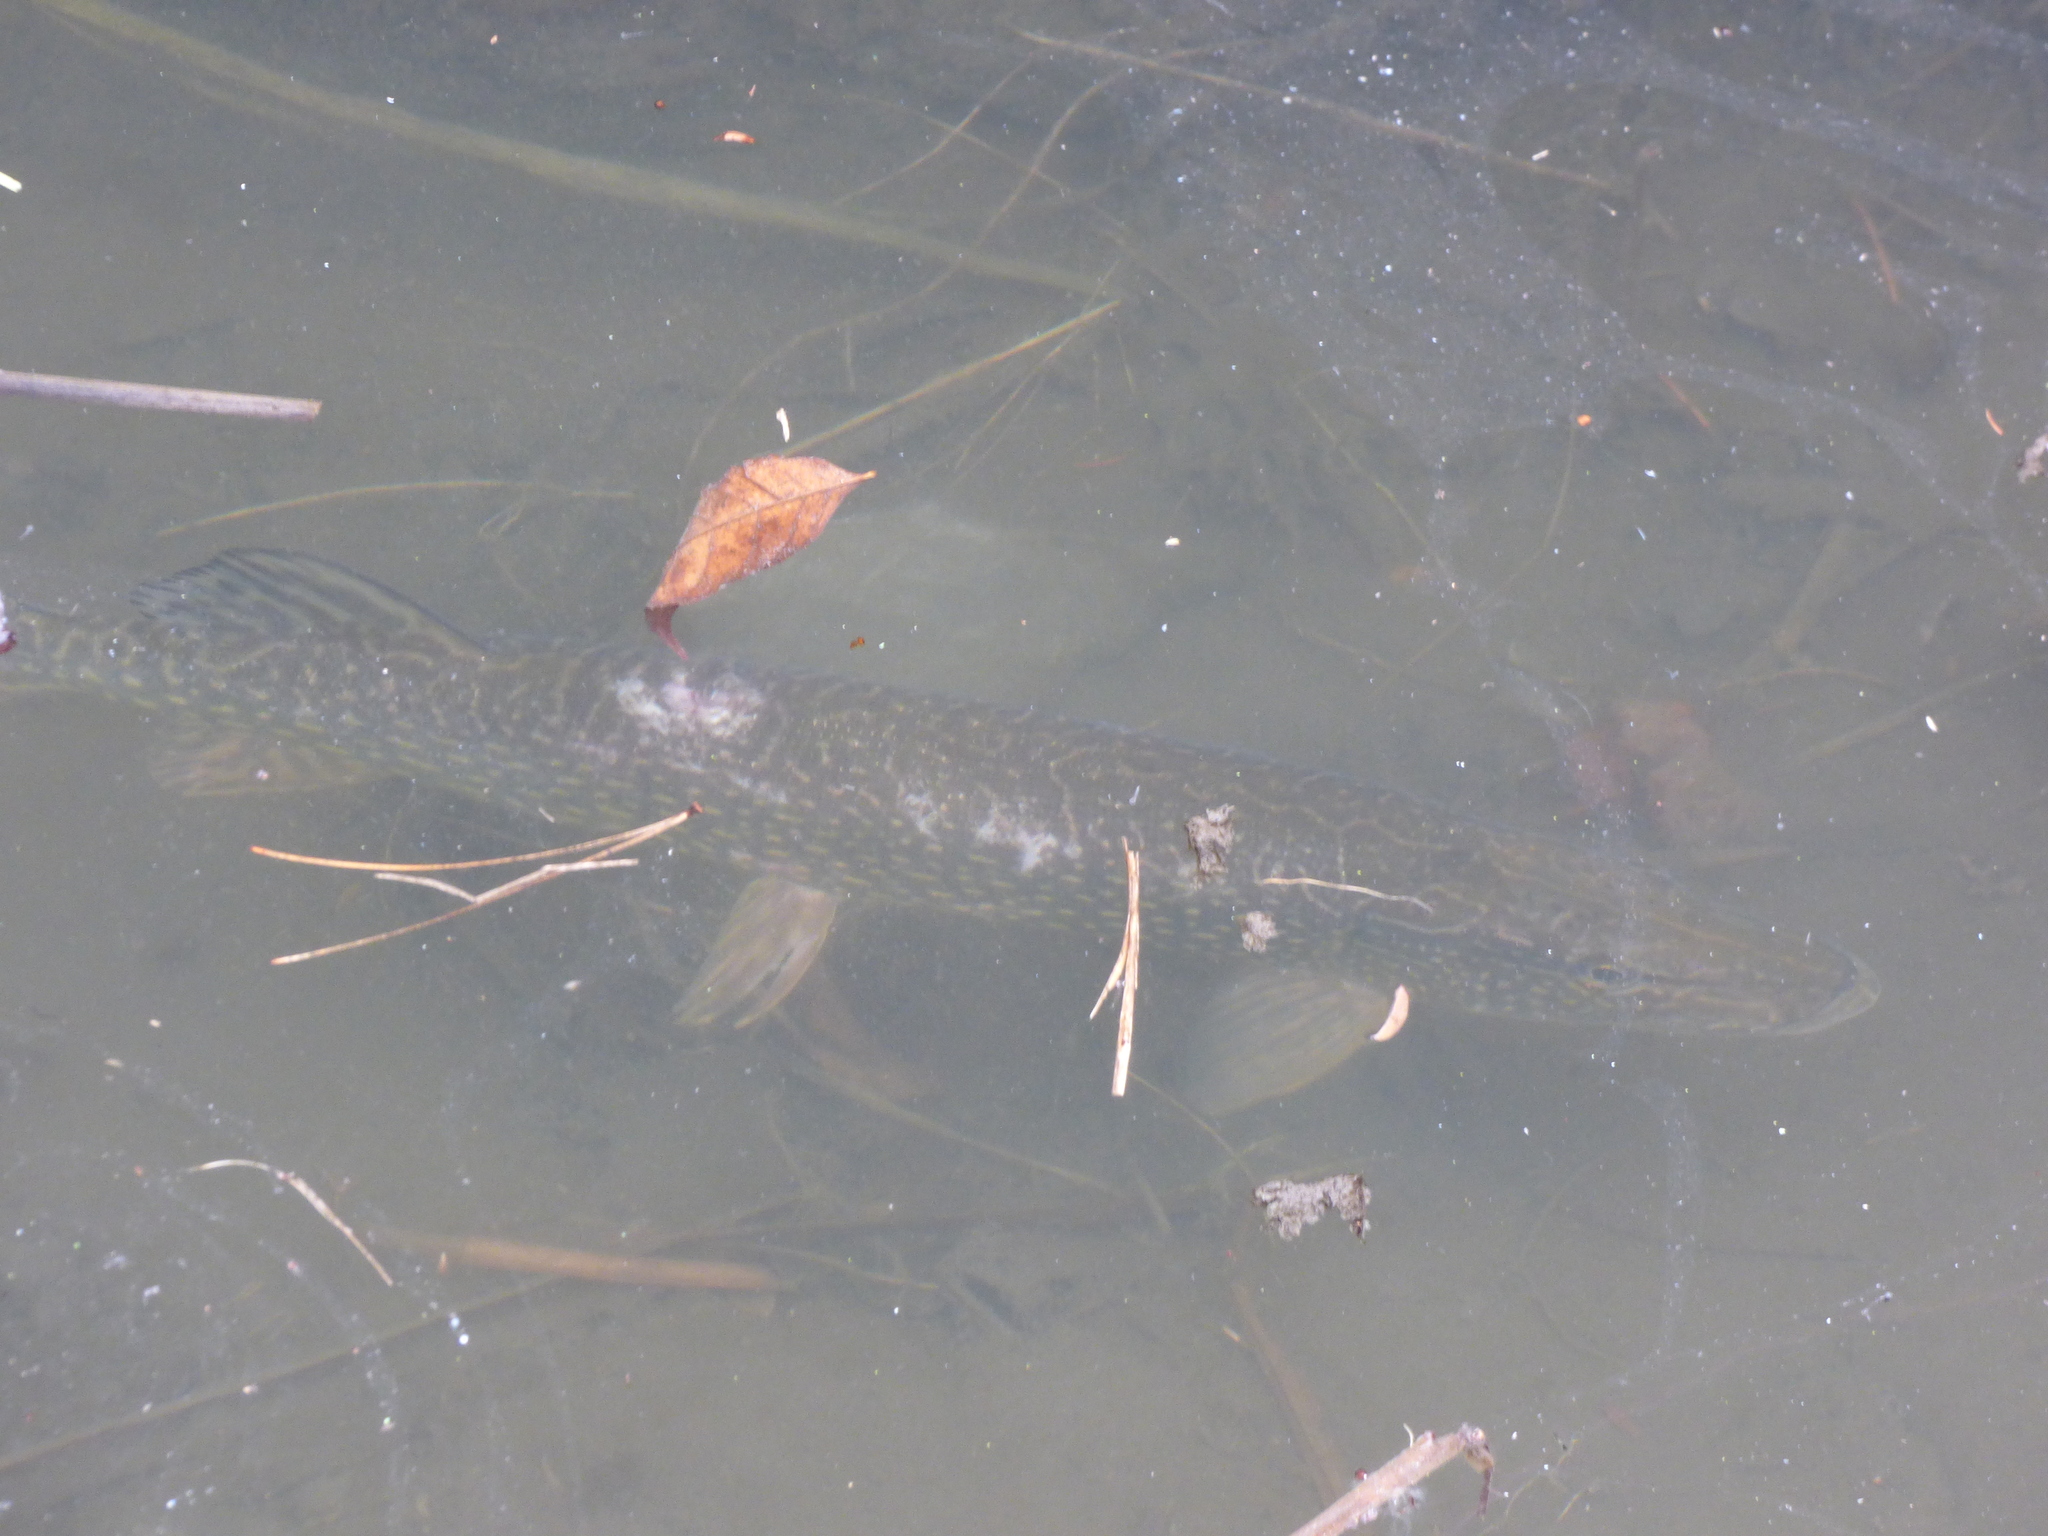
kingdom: Animalia
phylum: Chordata
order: Esociformes
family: Esocidae
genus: Esox
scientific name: Esox lucius
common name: Northern pike
